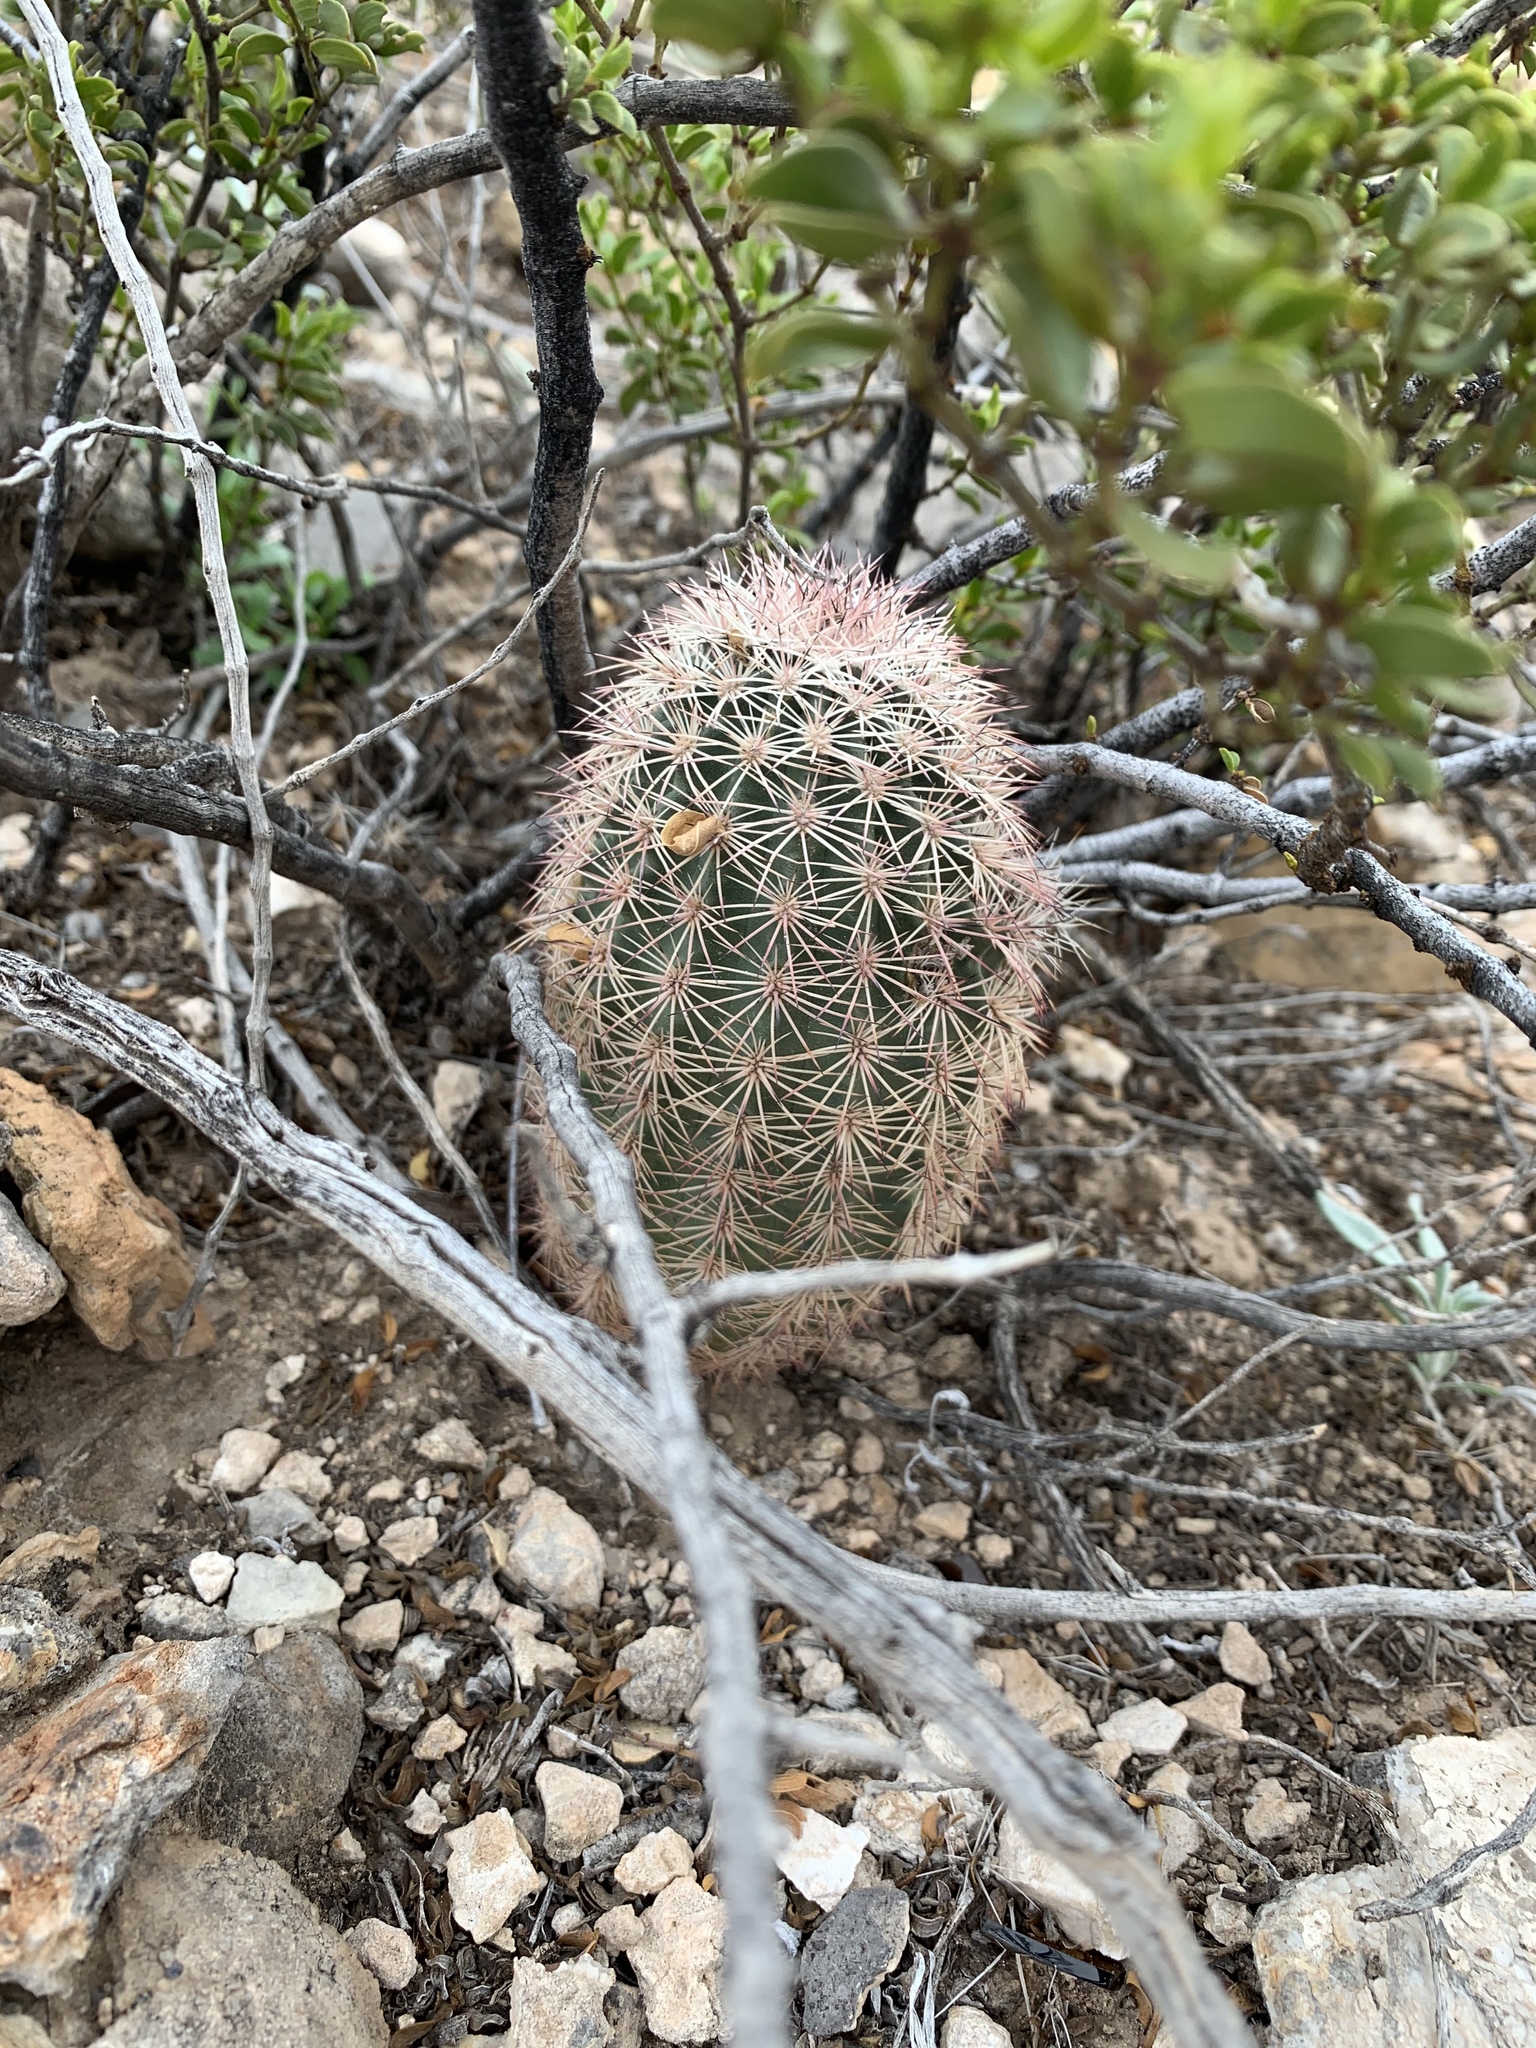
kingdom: Plantae
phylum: Tracheophyta
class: Magnoliopsida
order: Caryophyllales
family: Cactaceae
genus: Echinocereus
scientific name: Echinocereus dasyacanthus
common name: Spiny hedgehog cactus
